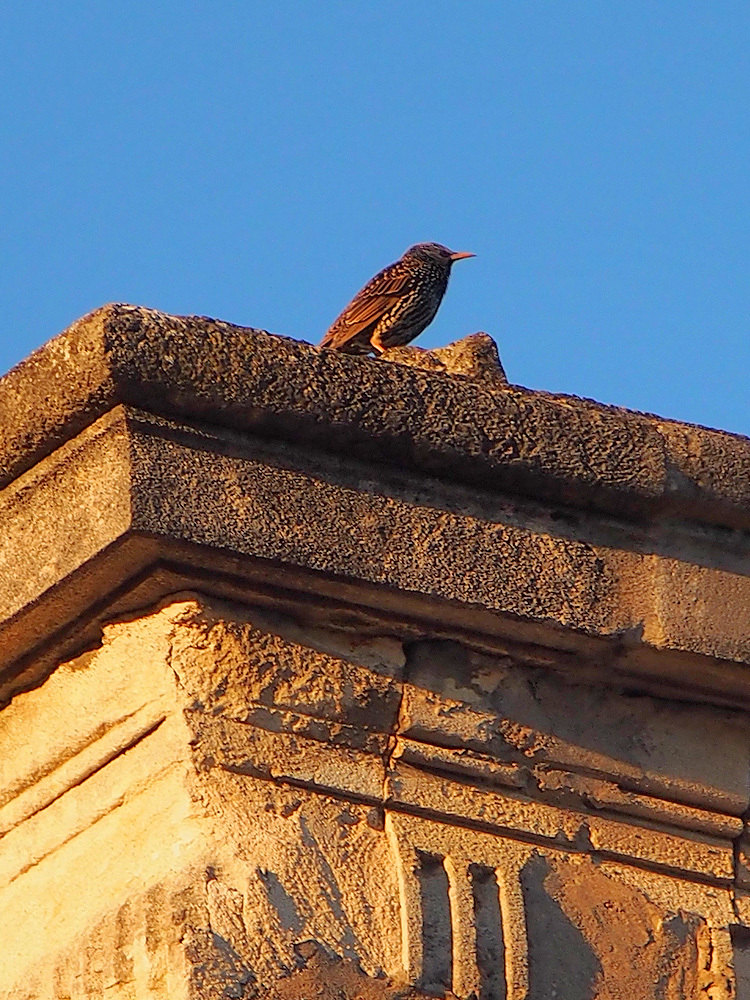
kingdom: Animalia
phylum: Chordata
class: Aves
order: Passeriformes
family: Sturnidae
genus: Sturnus
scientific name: Sturnus vulgaris
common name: Common starling
